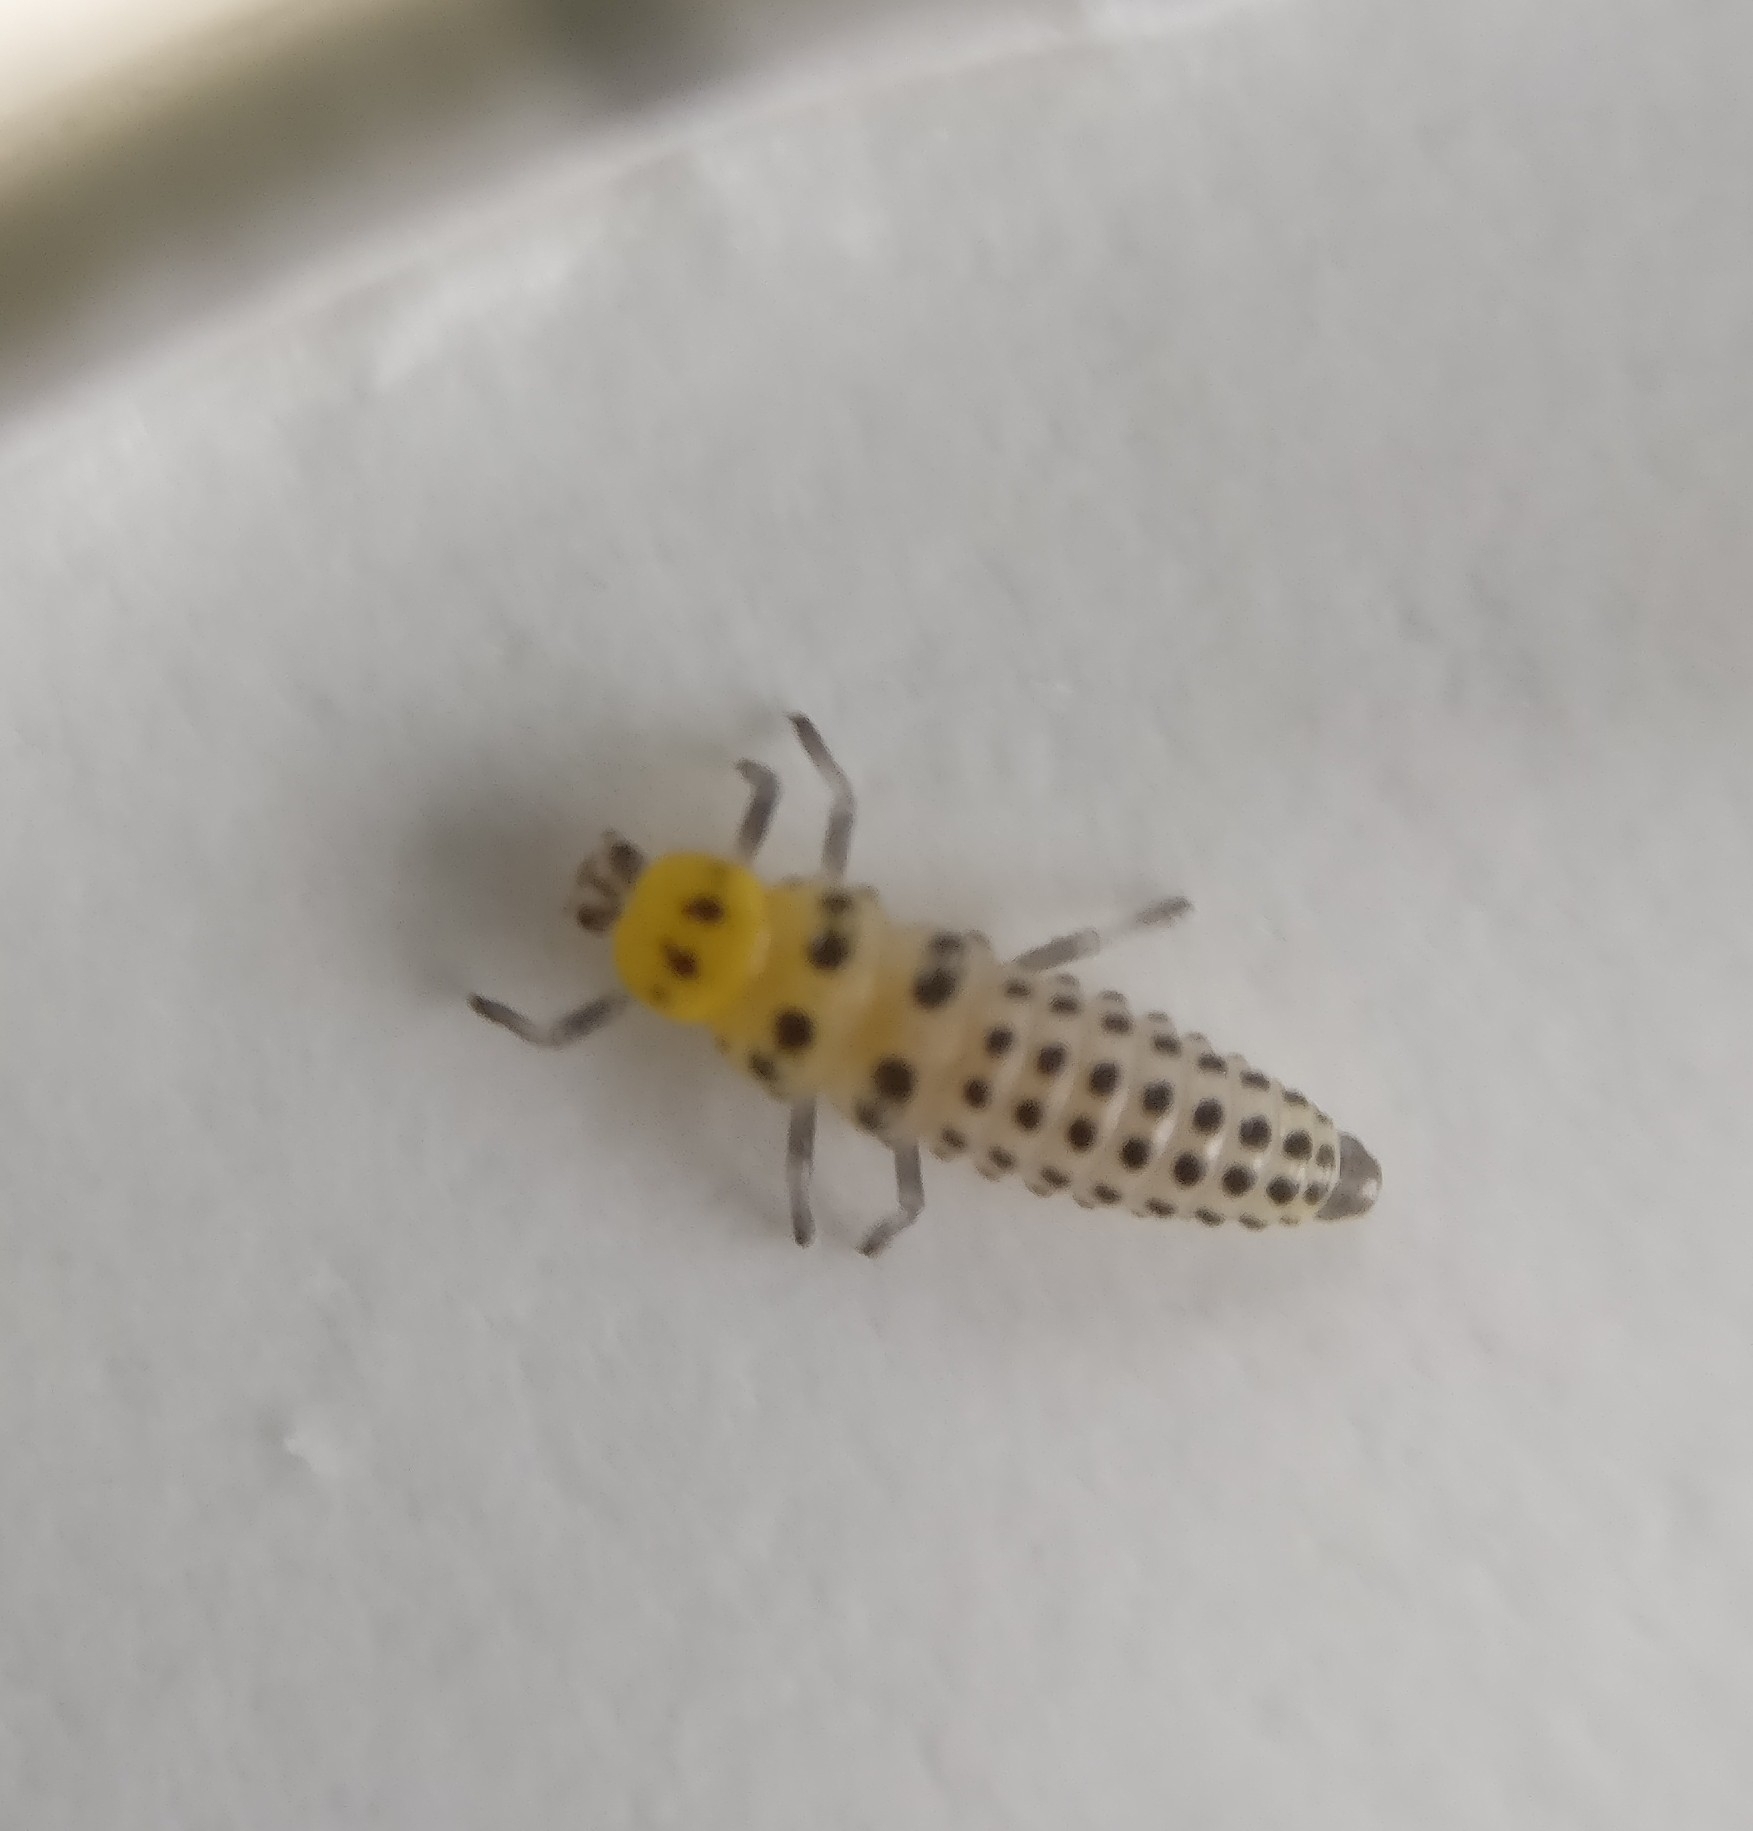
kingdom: Animalia
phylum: Arthropoda
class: Insecta
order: Coleoptera
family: Coccinellidae
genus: Illeis
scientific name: Illeis galbula
